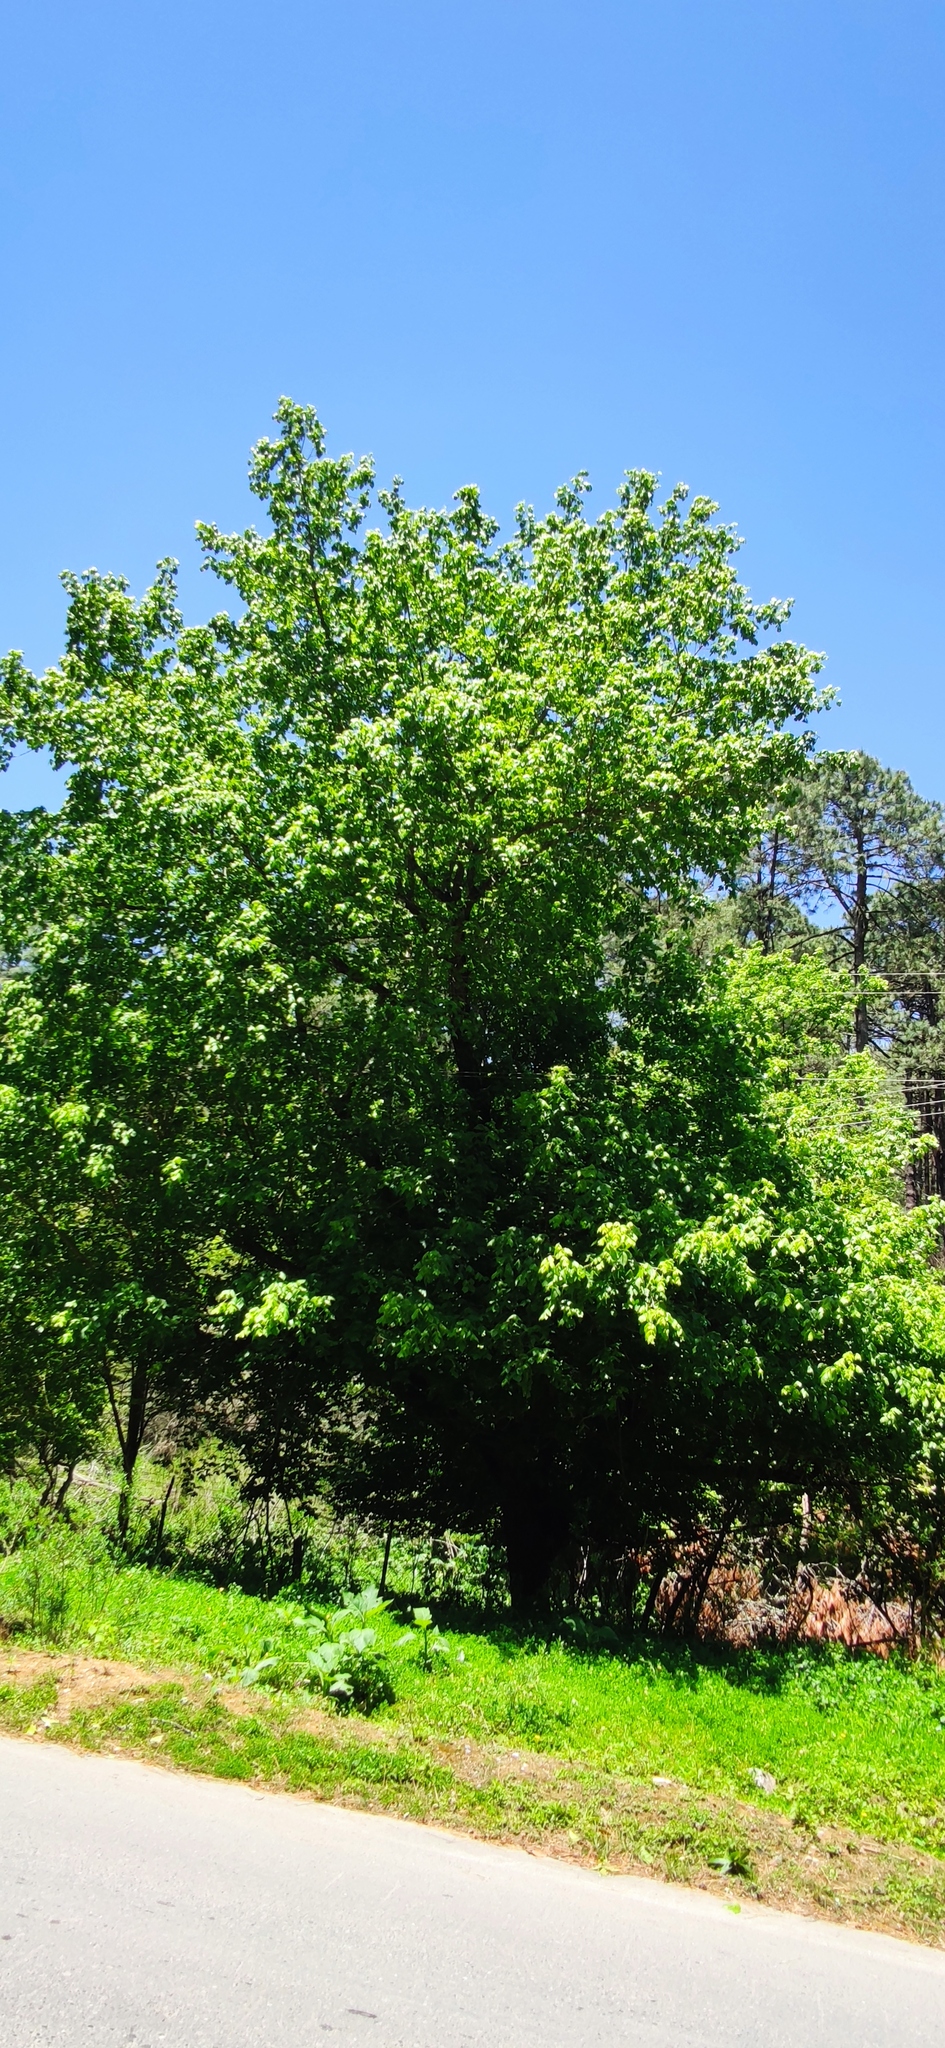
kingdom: Plantae
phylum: Tracheophyta
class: Magnoliopsida
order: Sapindales
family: Sapindaceae
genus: Acer
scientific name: Acer negundo
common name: Ashleaf maple
